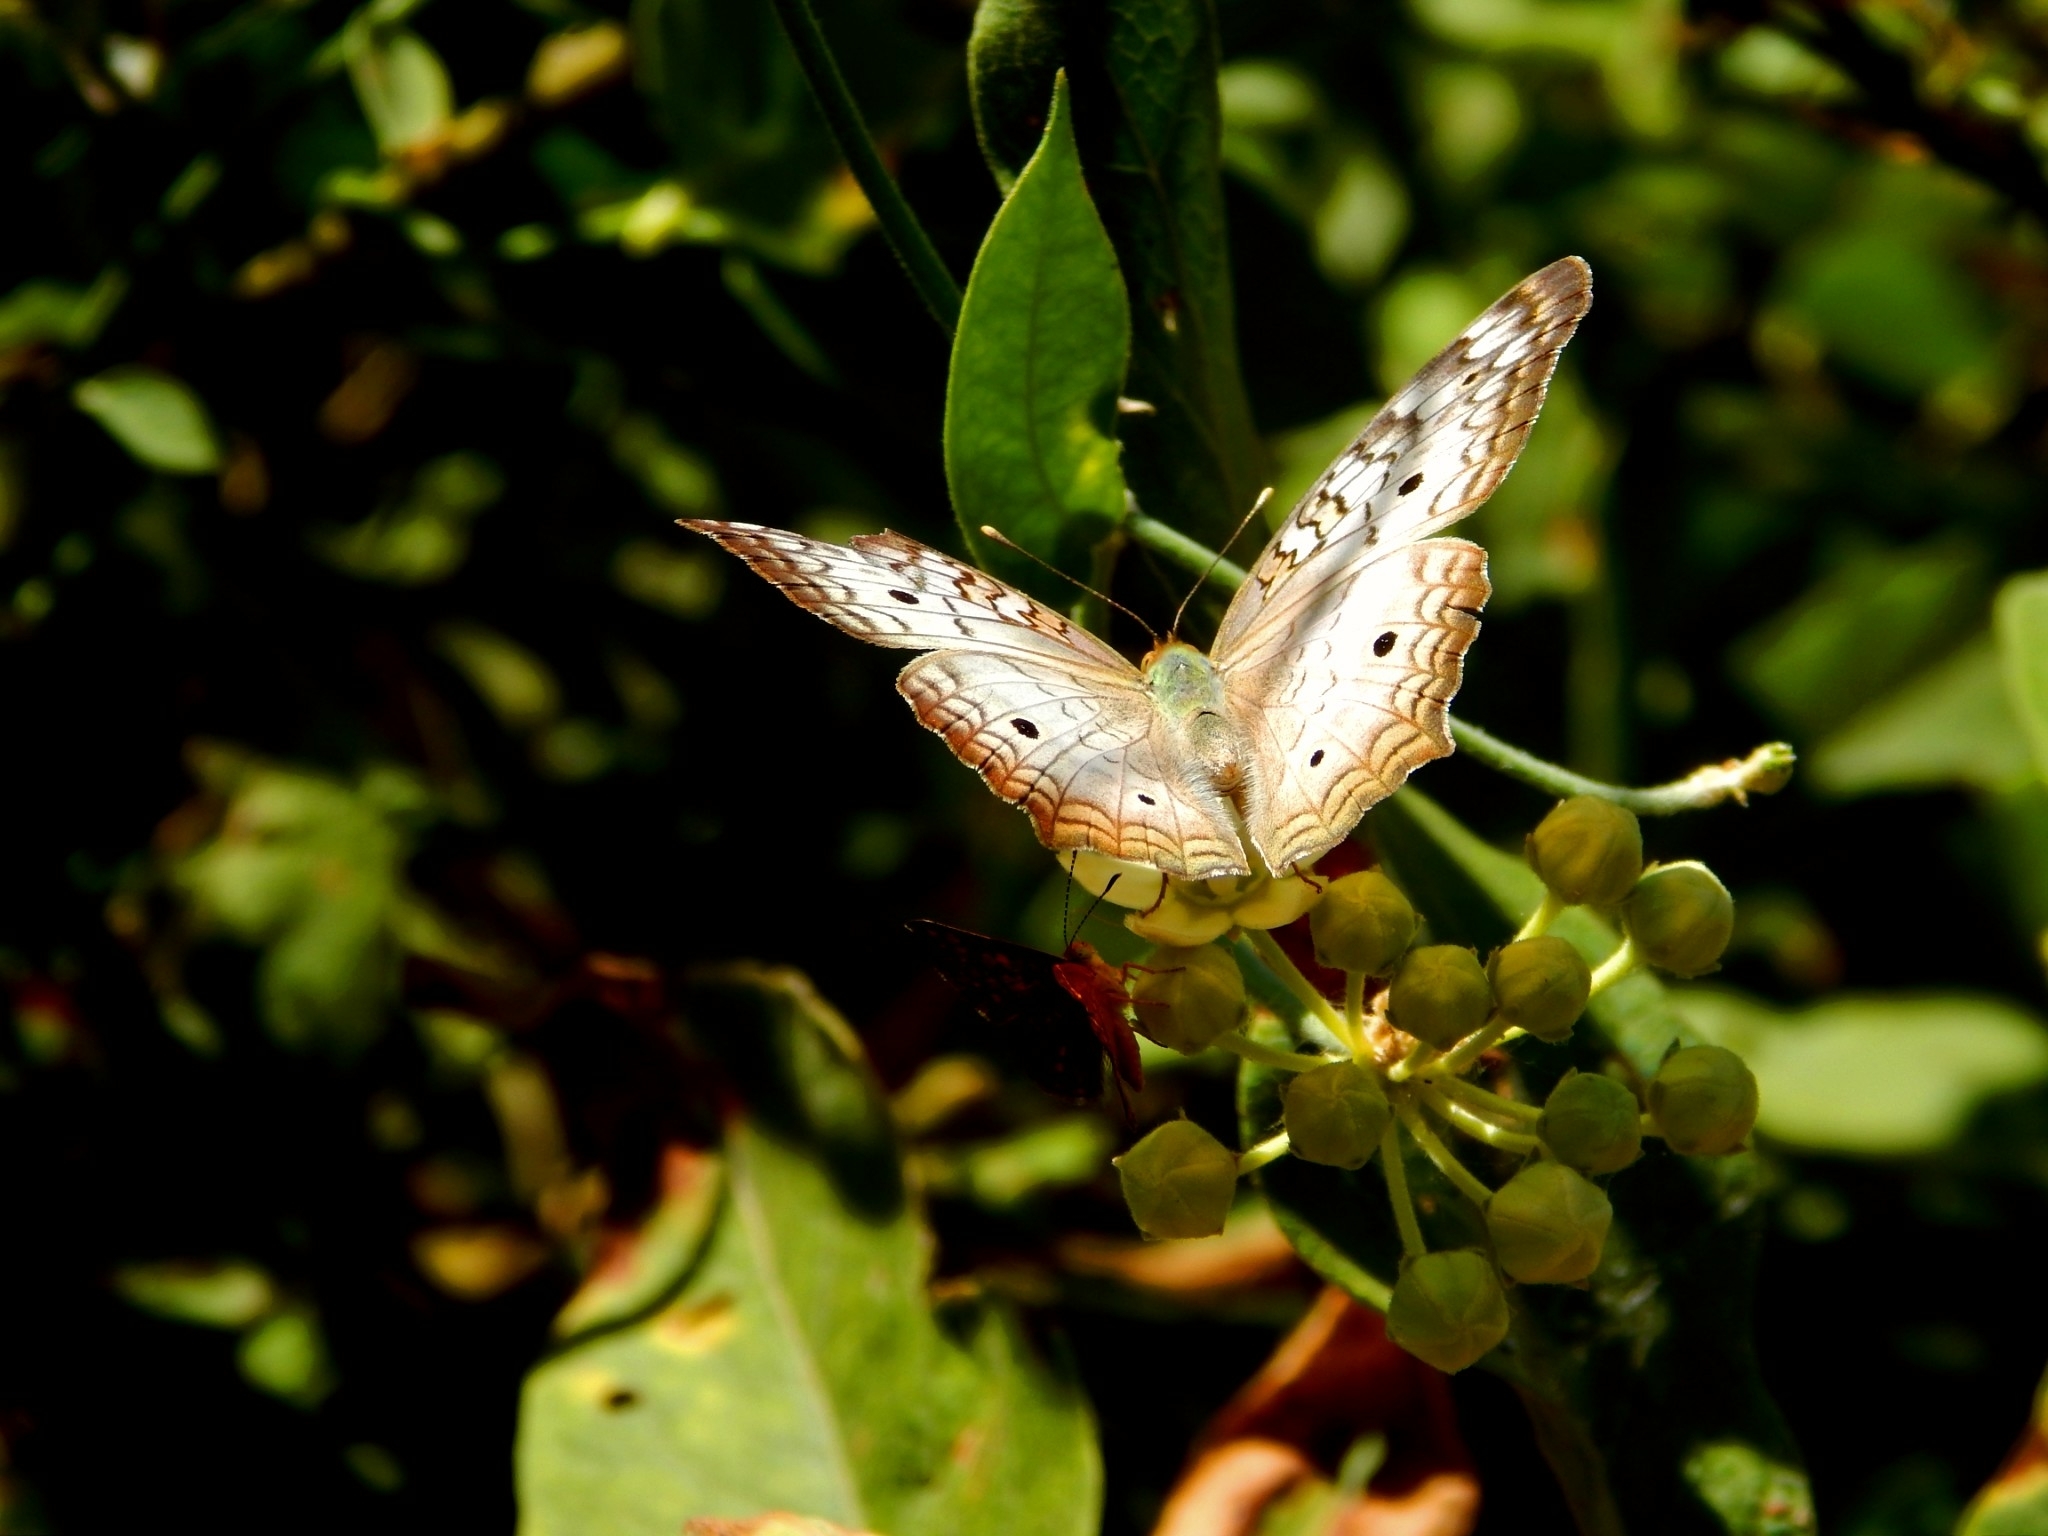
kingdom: Animalia
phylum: Arthropoda
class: Insecta
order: Lepidoptera
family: Nymphalidae
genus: Anartia
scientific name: Anartia jatrophae
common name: White peacock
